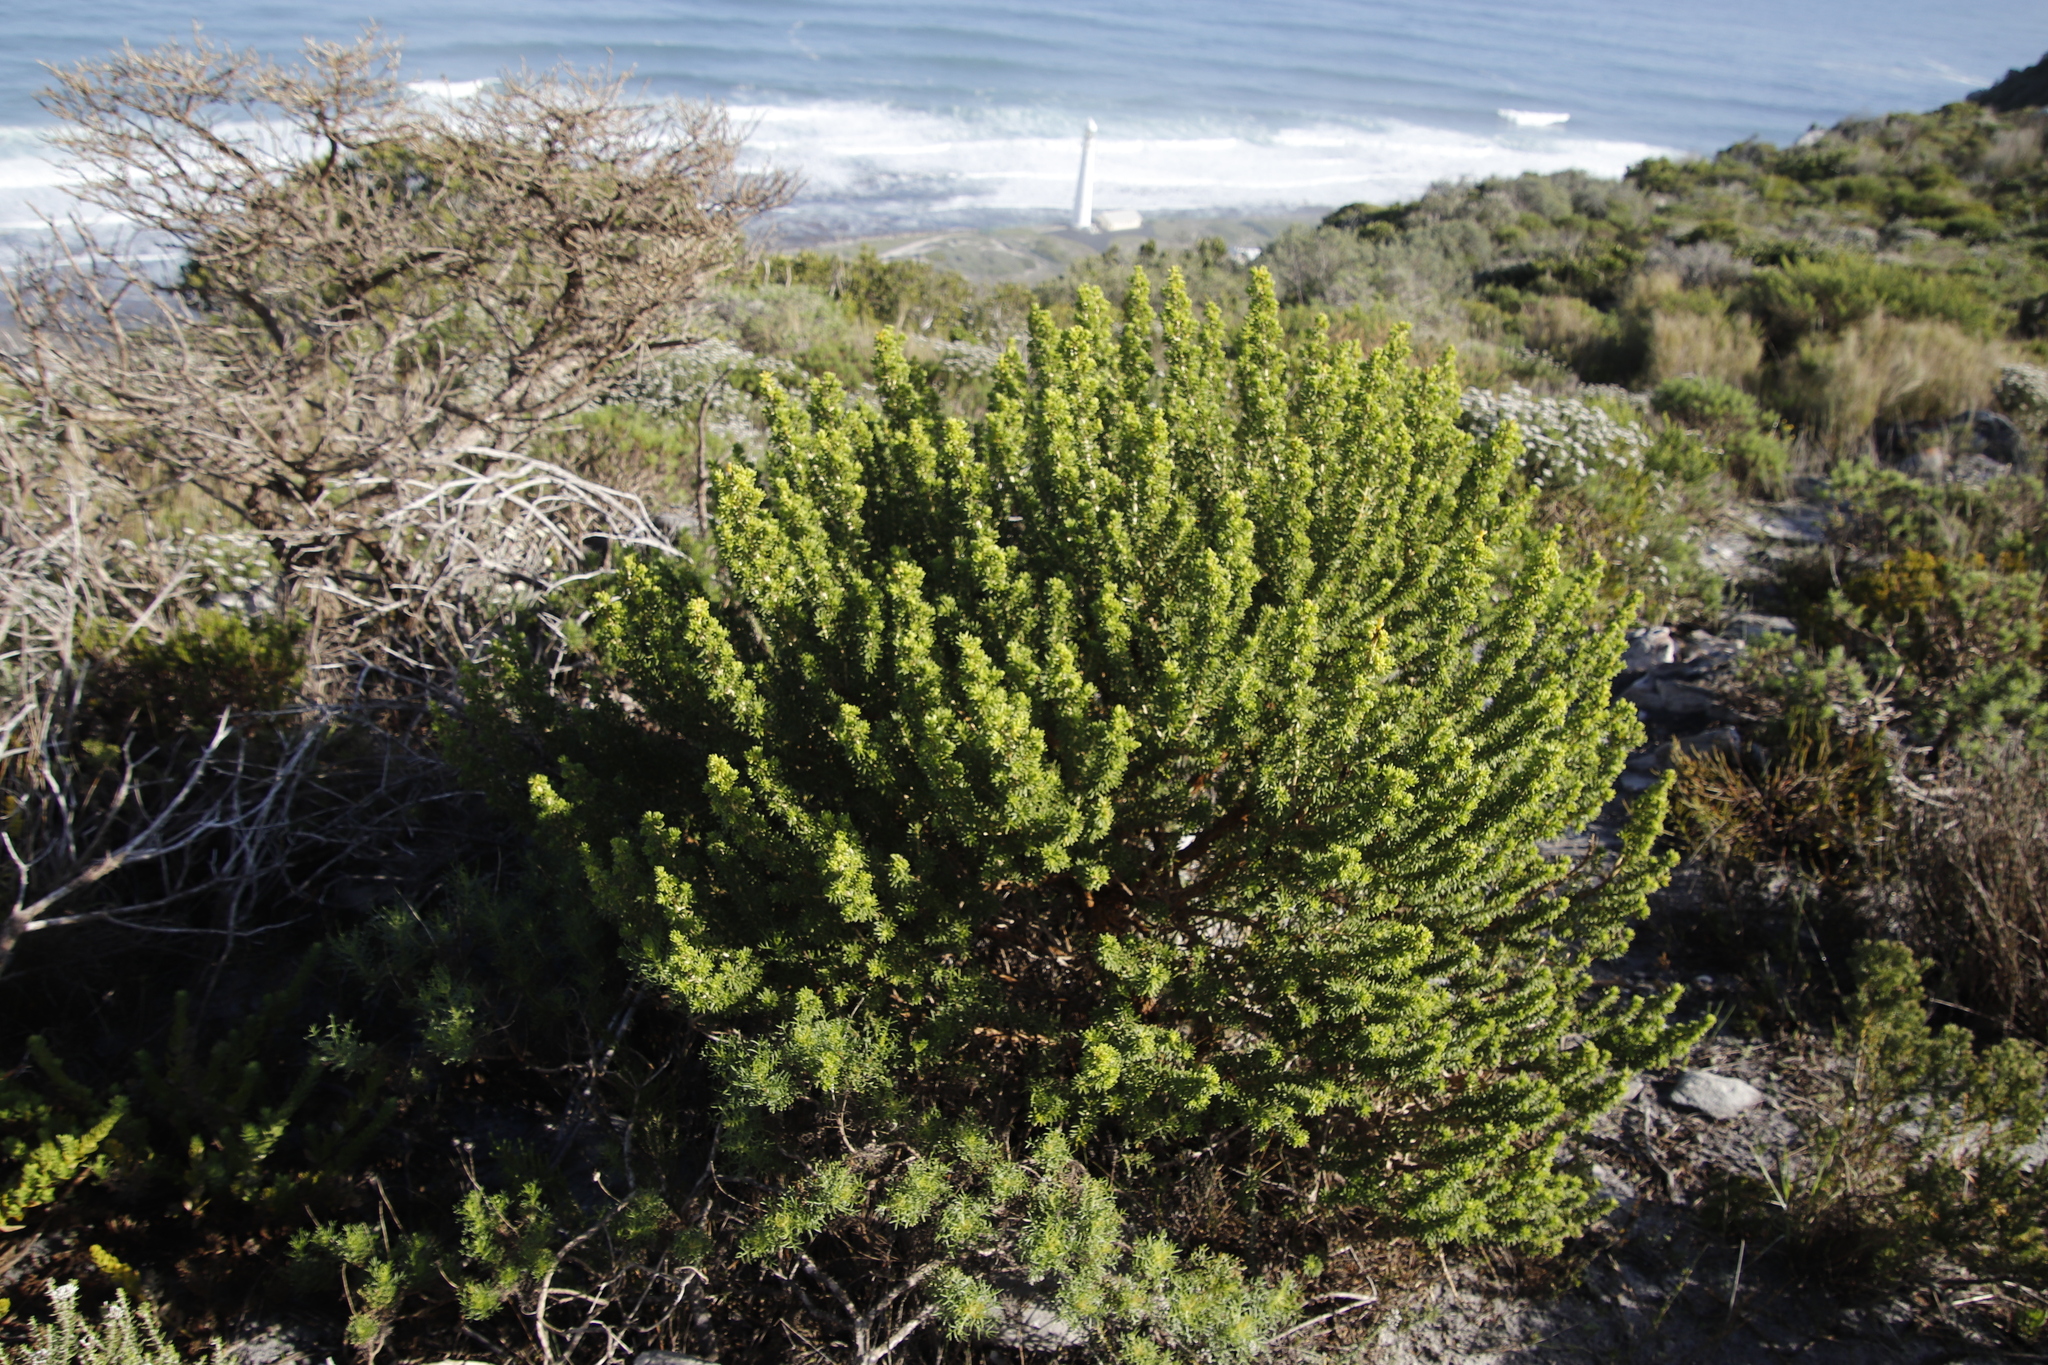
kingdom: Plantae
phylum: Tracheophyta
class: Magnoliopsida
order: Fabales
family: Fabaceae
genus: Aspalathus
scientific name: Aspalathus capensis
